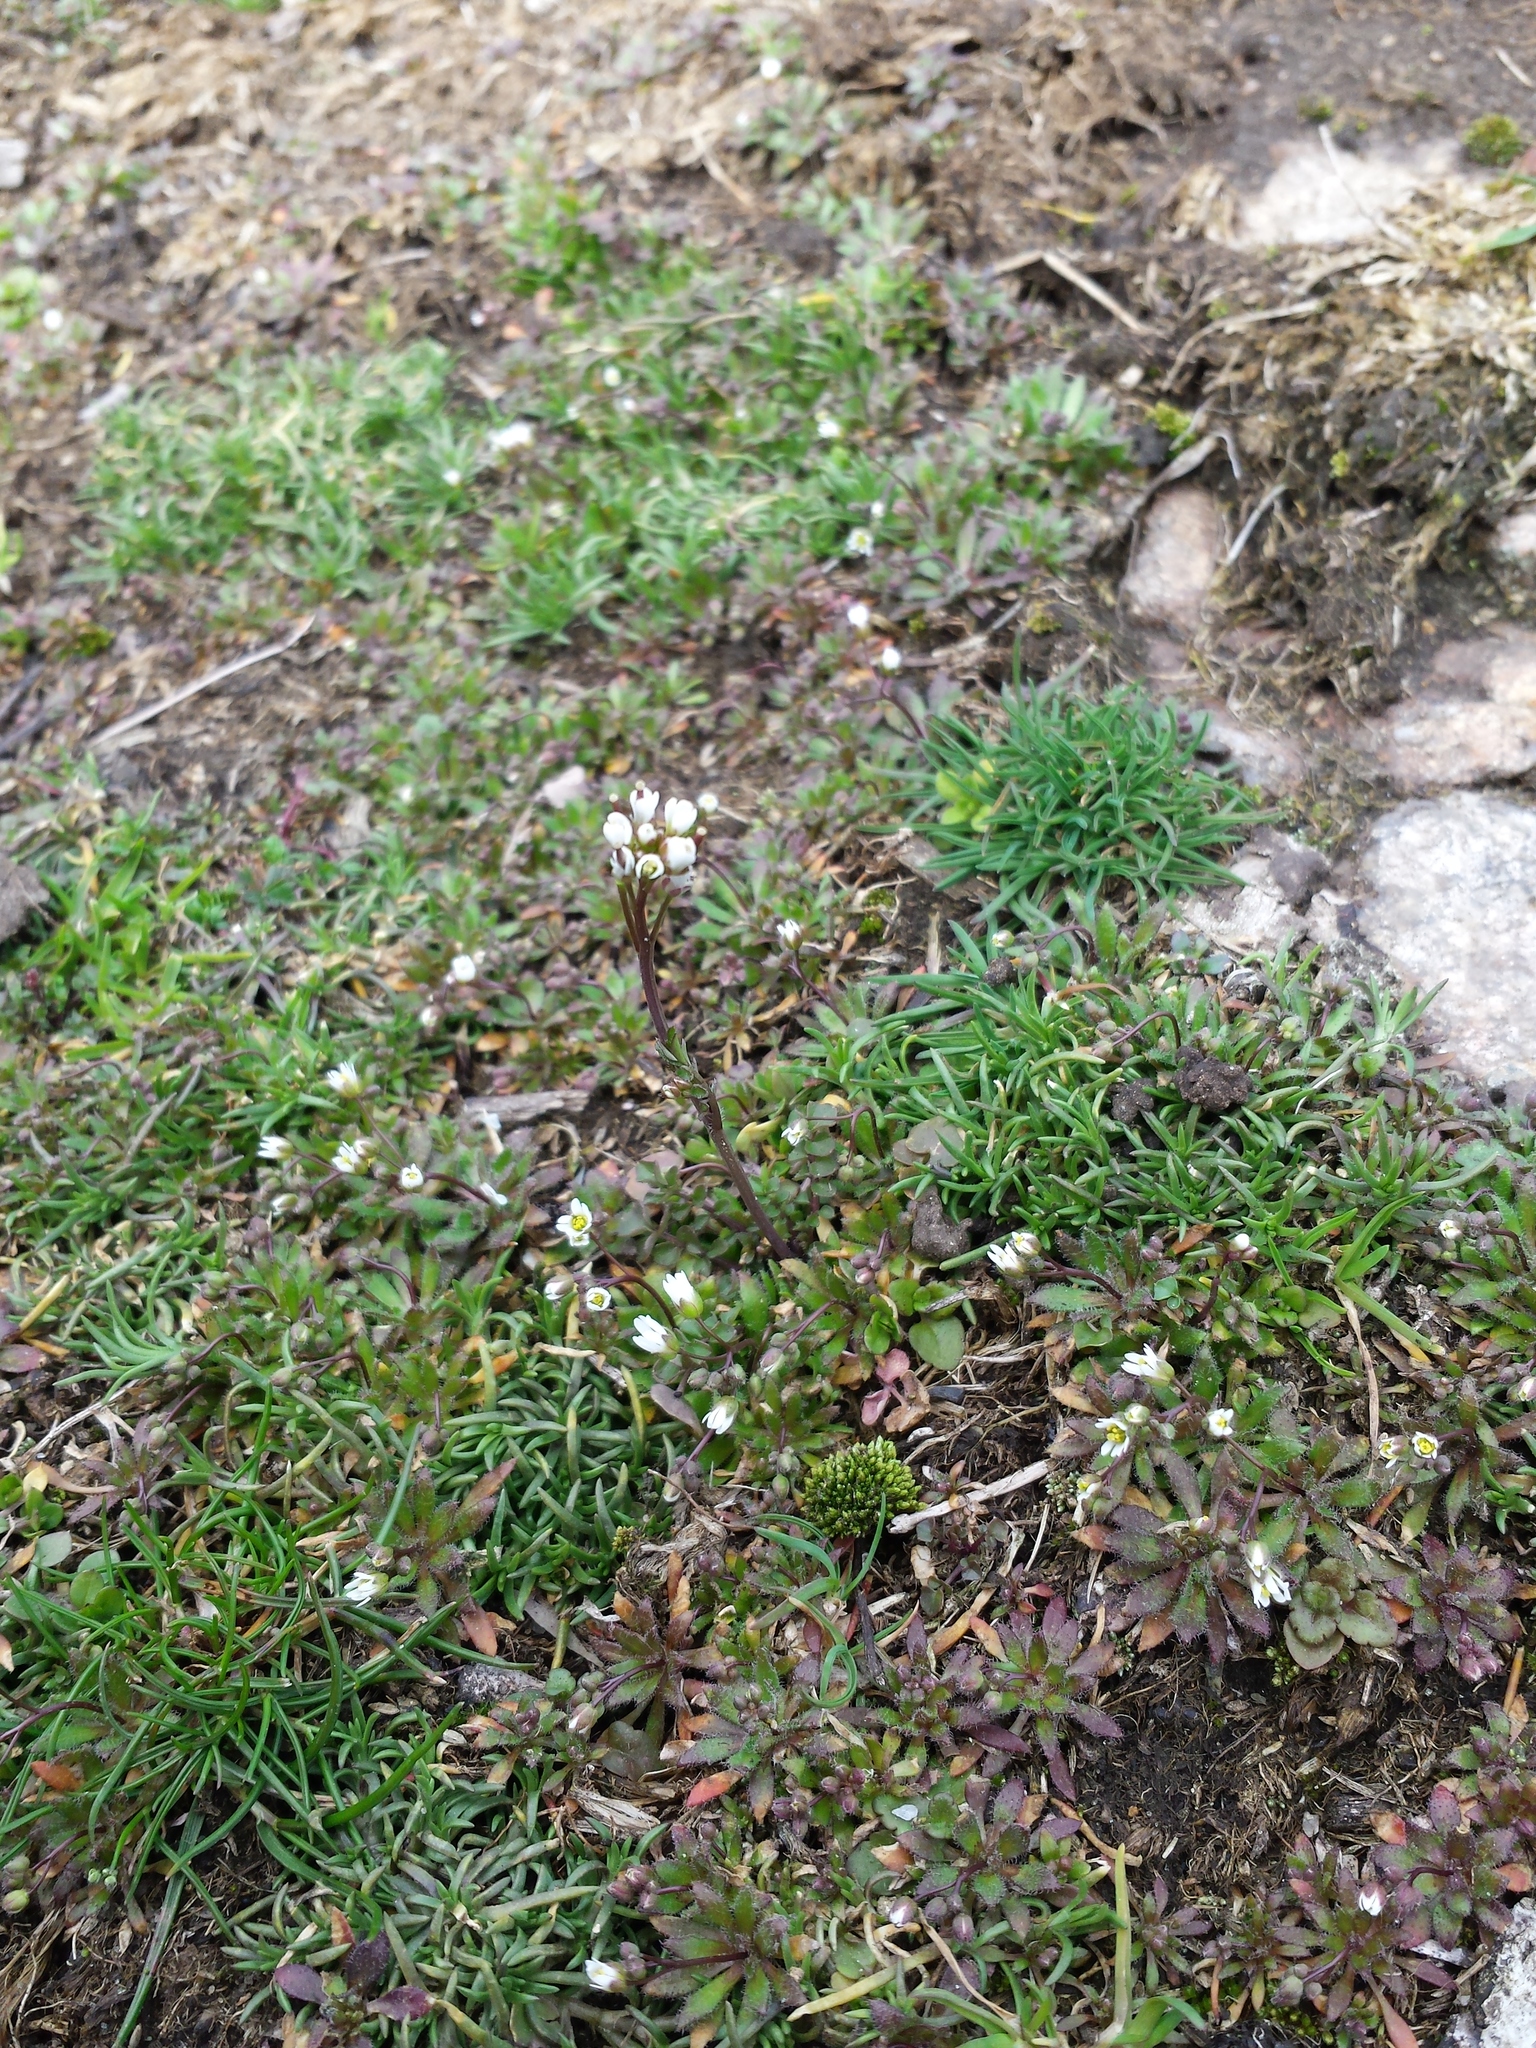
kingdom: Plantae
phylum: Tracheophyta
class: Magnoliopsida
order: Brassicales
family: Brassicaceae
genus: Cardamine
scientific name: Cardamine hirsuta
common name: Hairy bittercress
